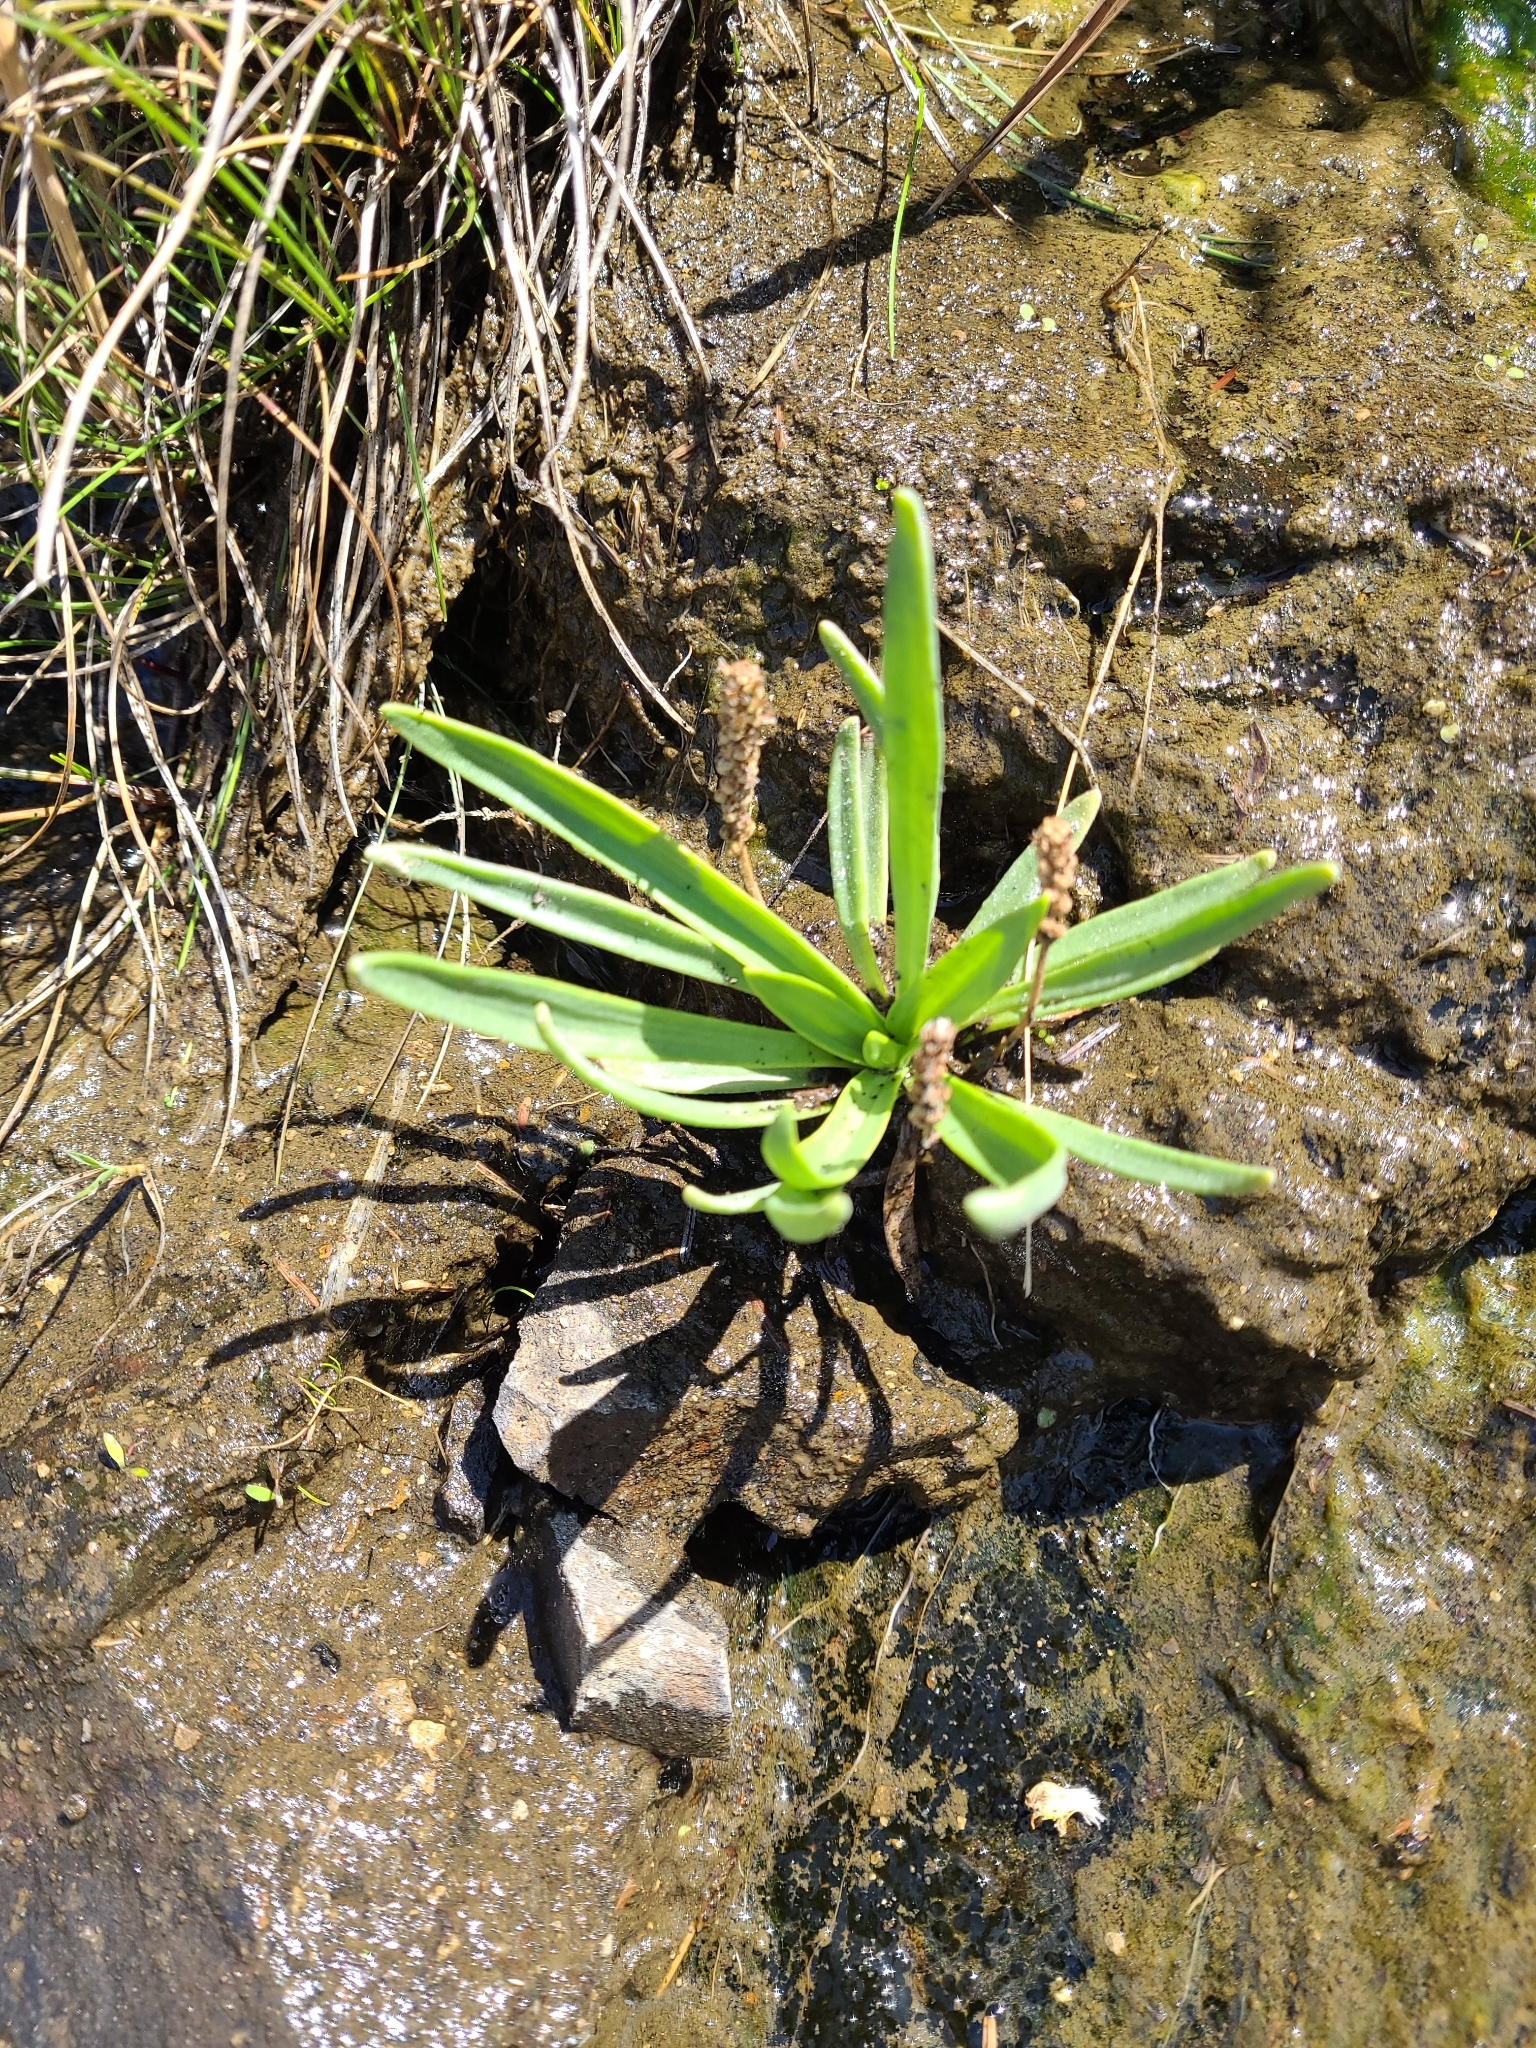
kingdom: Plantae
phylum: Tracheophyta
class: Magnoliopsida
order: Lamiales
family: Plantaginaceae
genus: Plantago
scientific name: Plantago maritima
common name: Sea plantain
